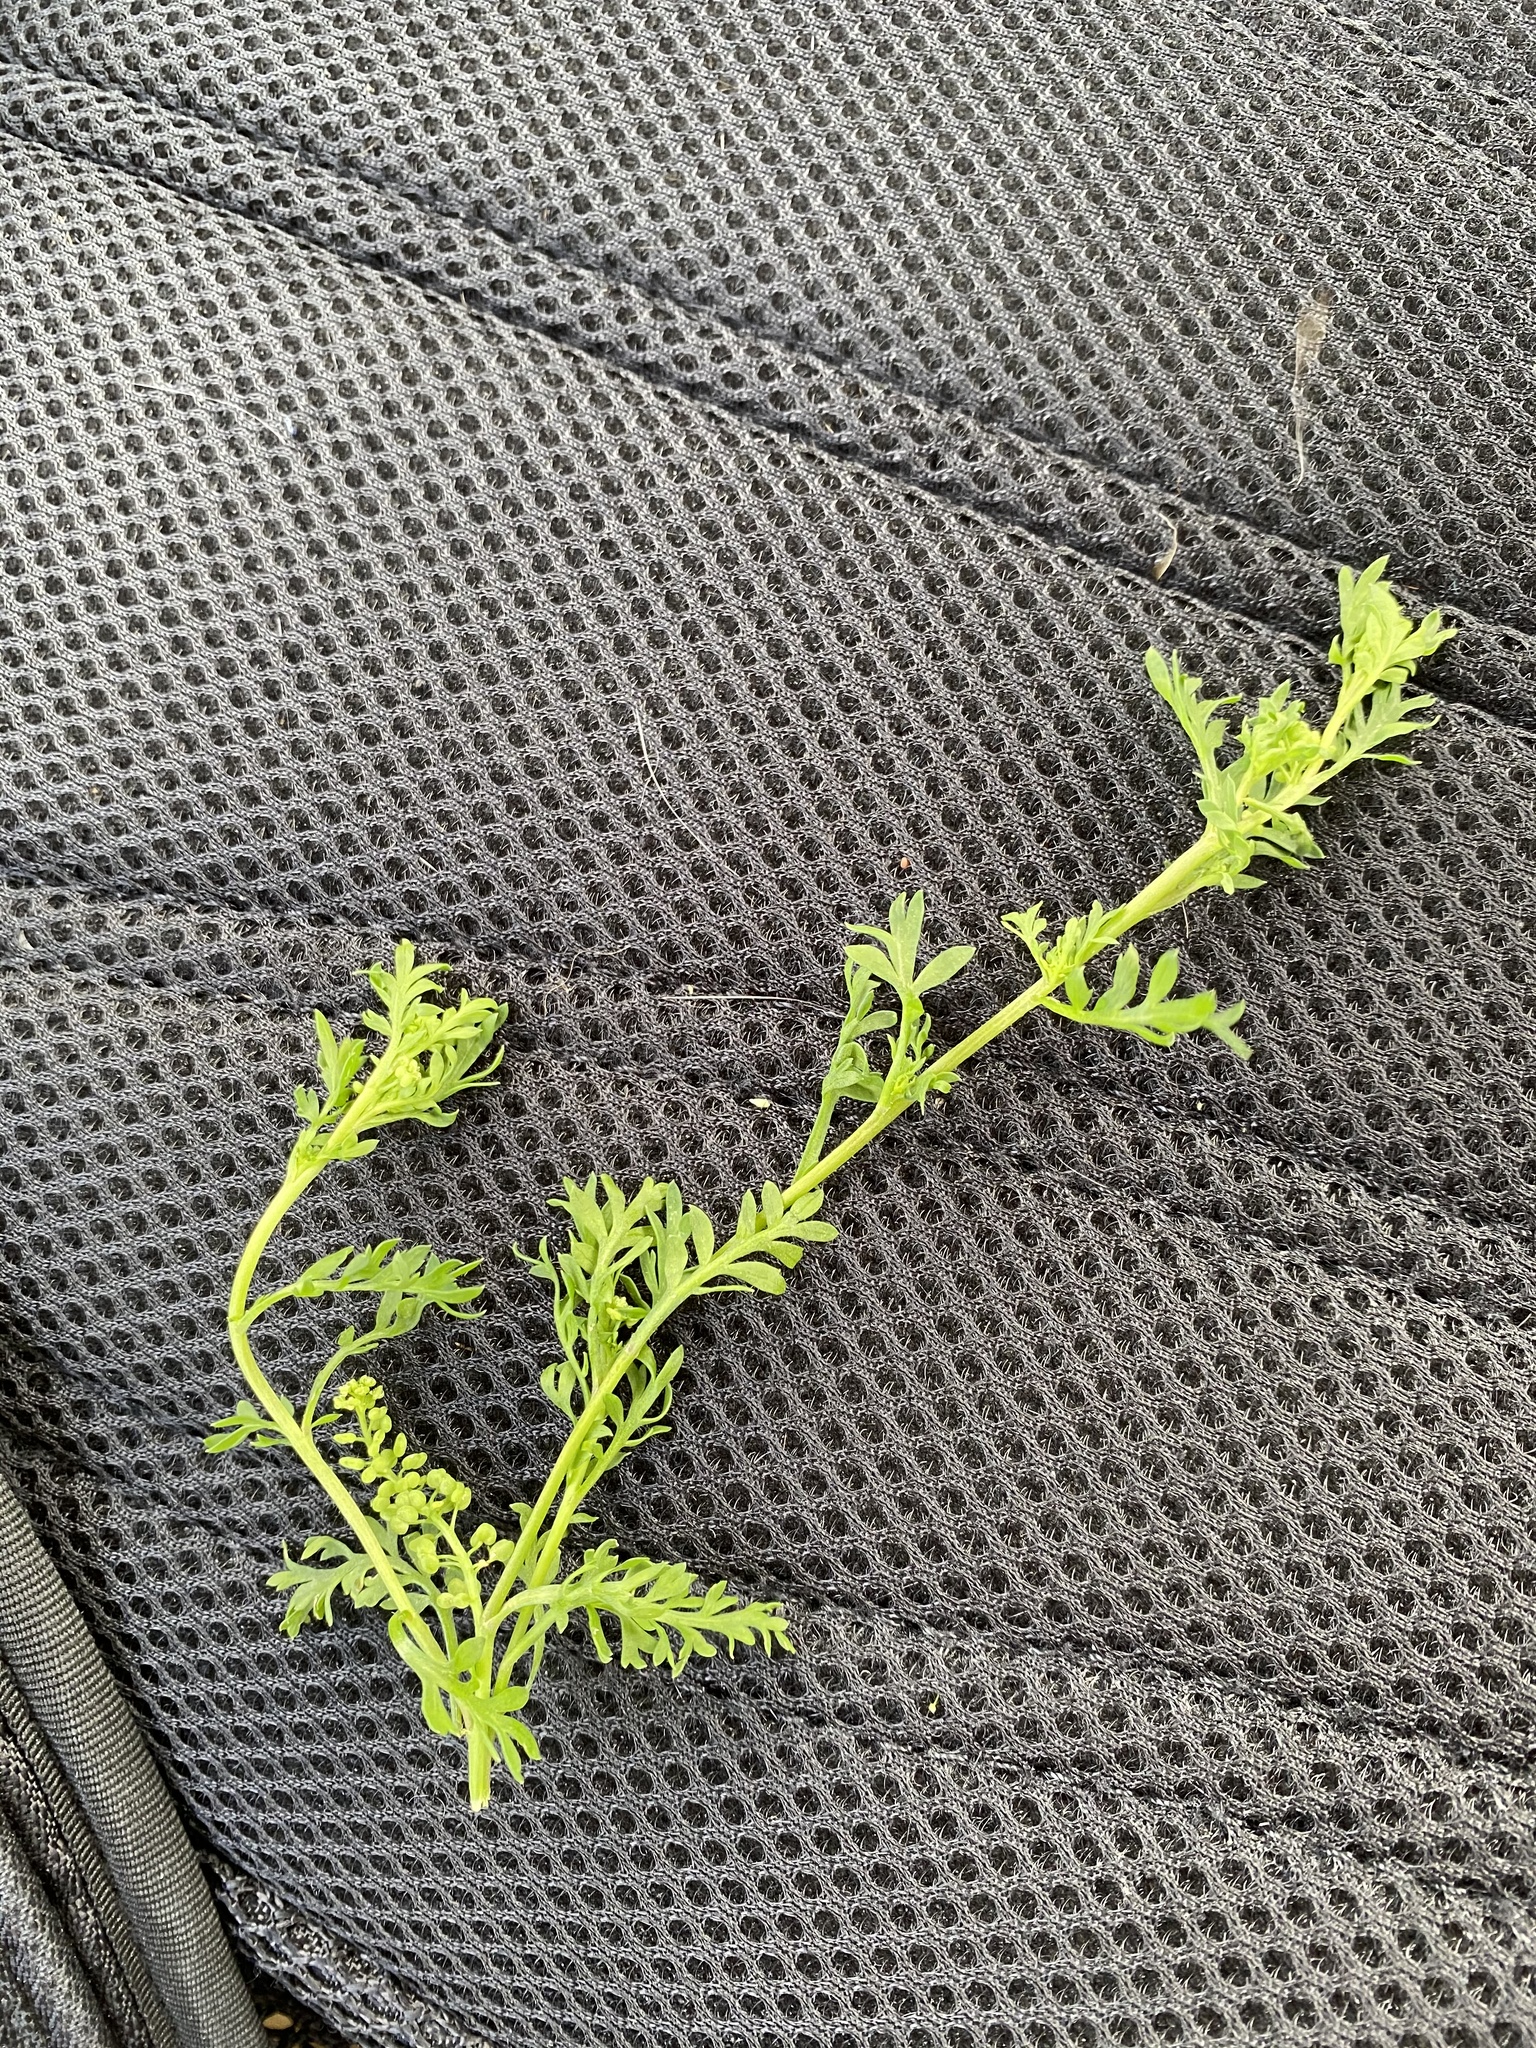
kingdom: Plantae
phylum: Tracheophyta
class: Magnoliopsida
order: Brassicales
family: Brassicaceae
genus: Lepidium
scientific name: Lepidium didymum
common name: Lesser swinecress
